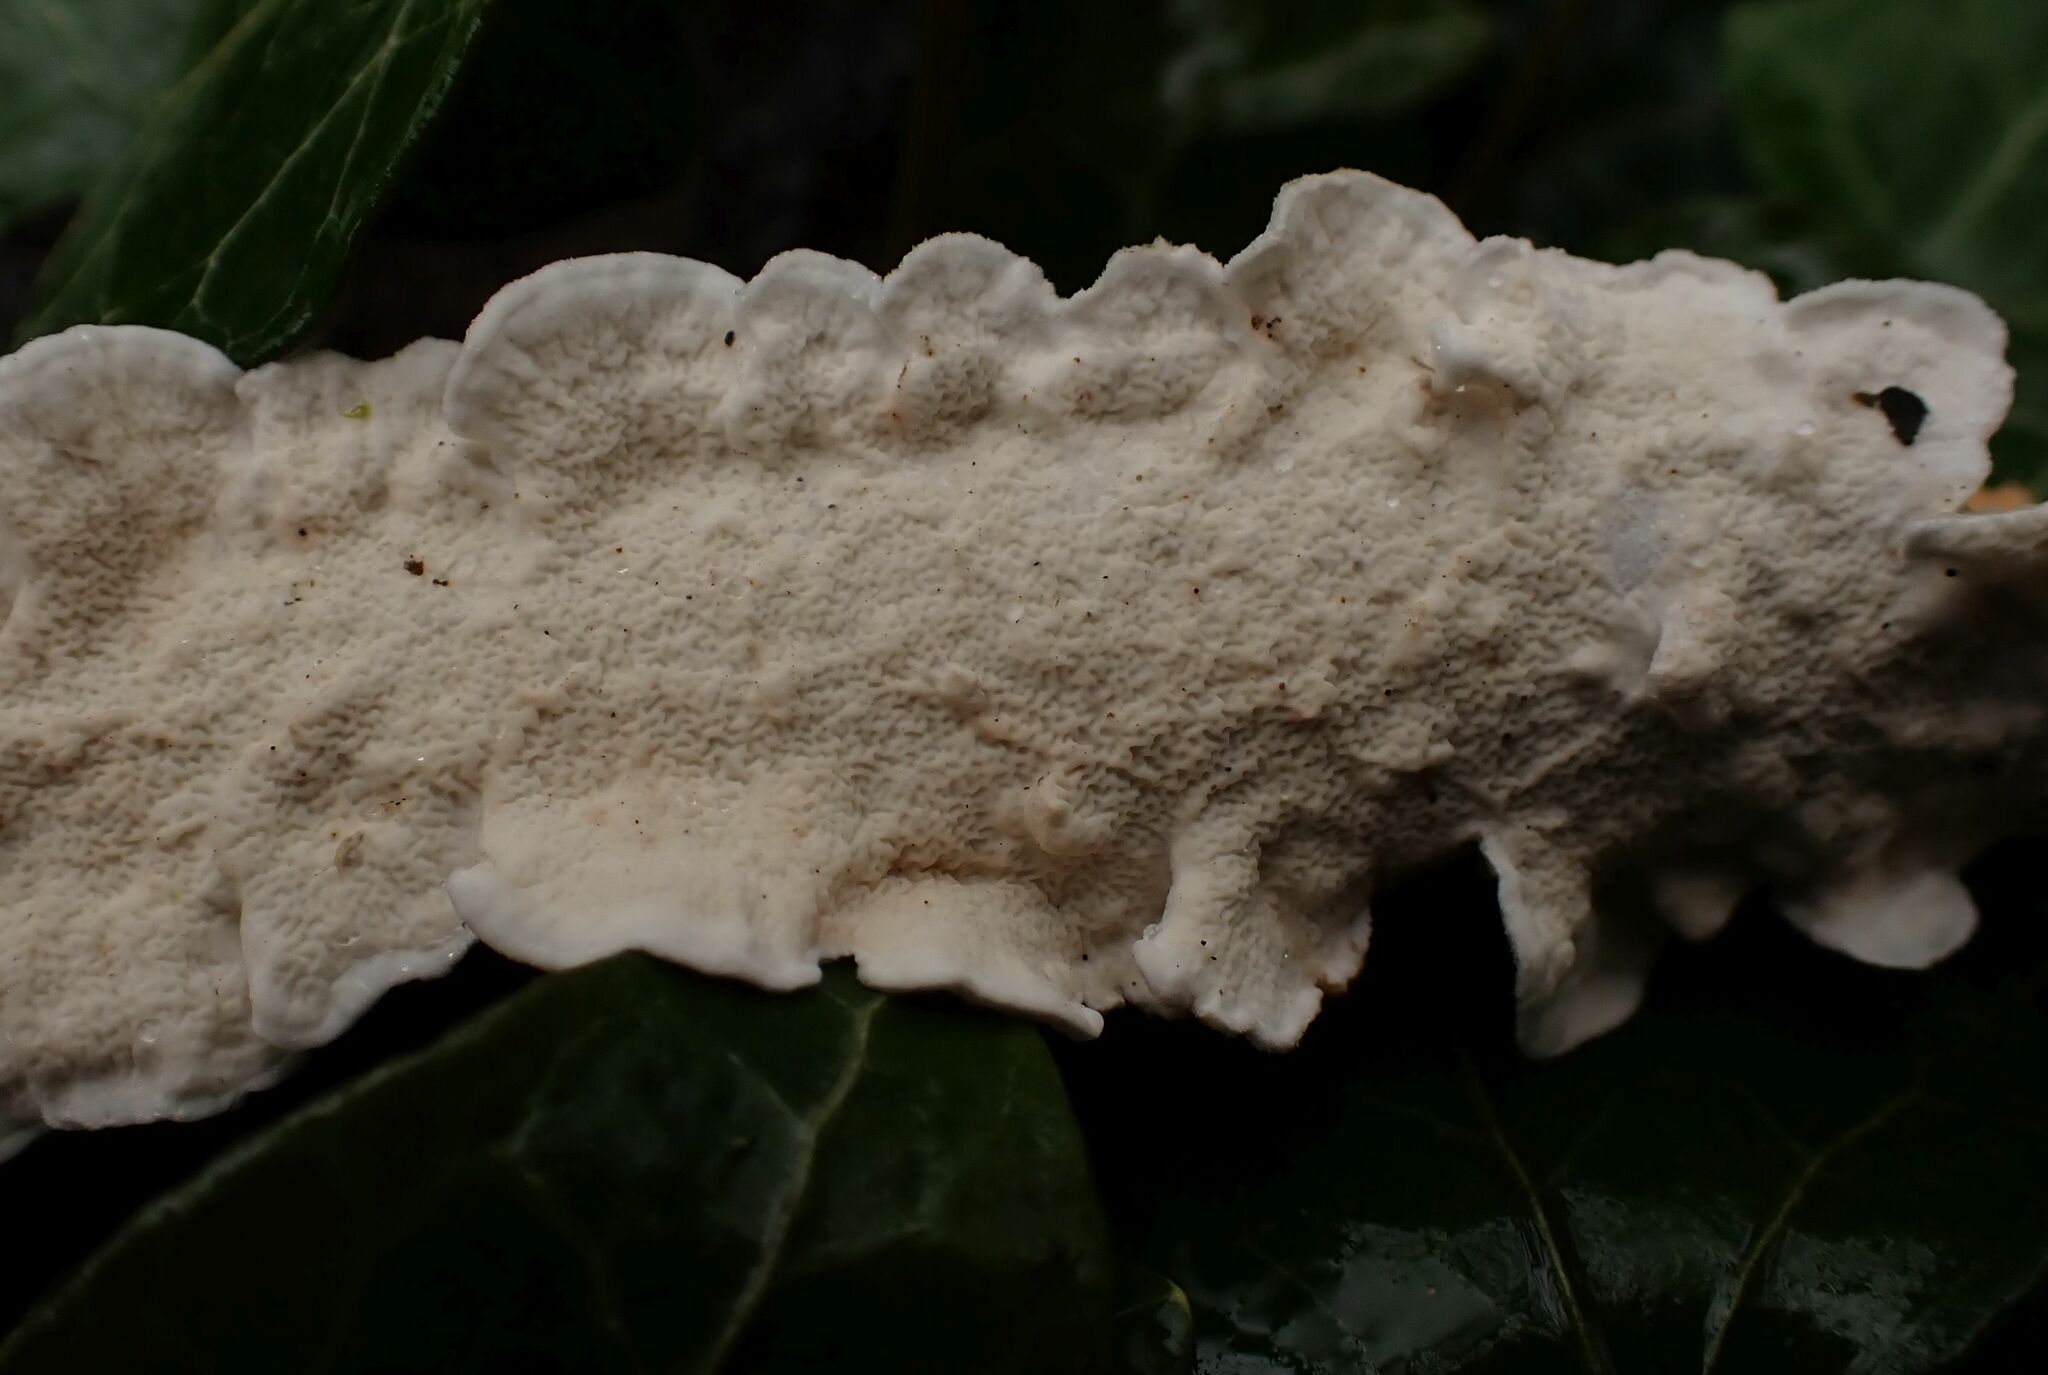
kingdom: Fungi
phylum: Basidiomycota
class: Agaricomycetes
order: Polyporales
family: Irpicaceae
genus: Byssomerulius
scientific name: Byssomerulius corium
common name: Netted crust
